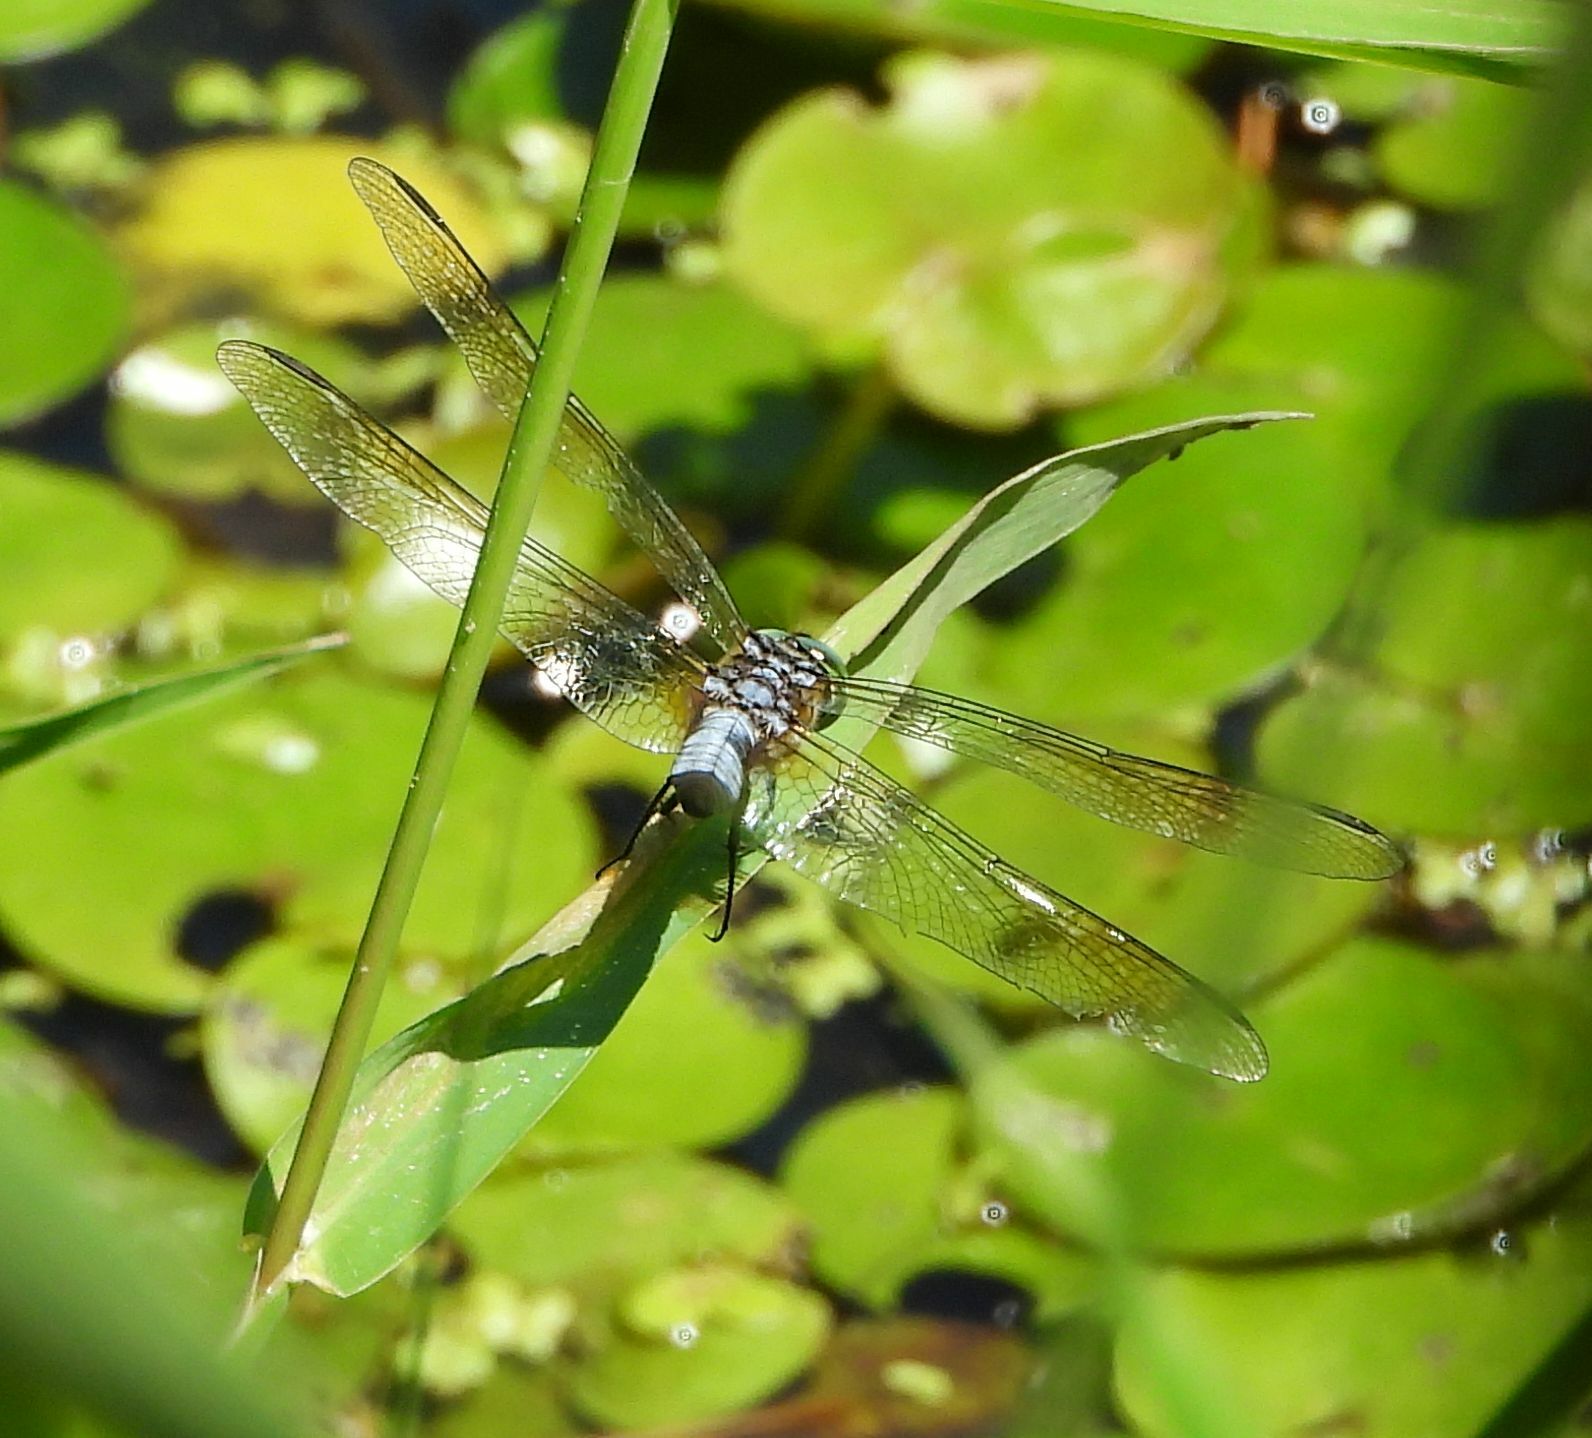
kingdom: Animalia
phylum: Arthropoda
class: Insecta
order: Odonata
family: Libellulidae
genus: Pachydiplax
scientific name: Pachydiplax longipennis
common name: Blue dasher
